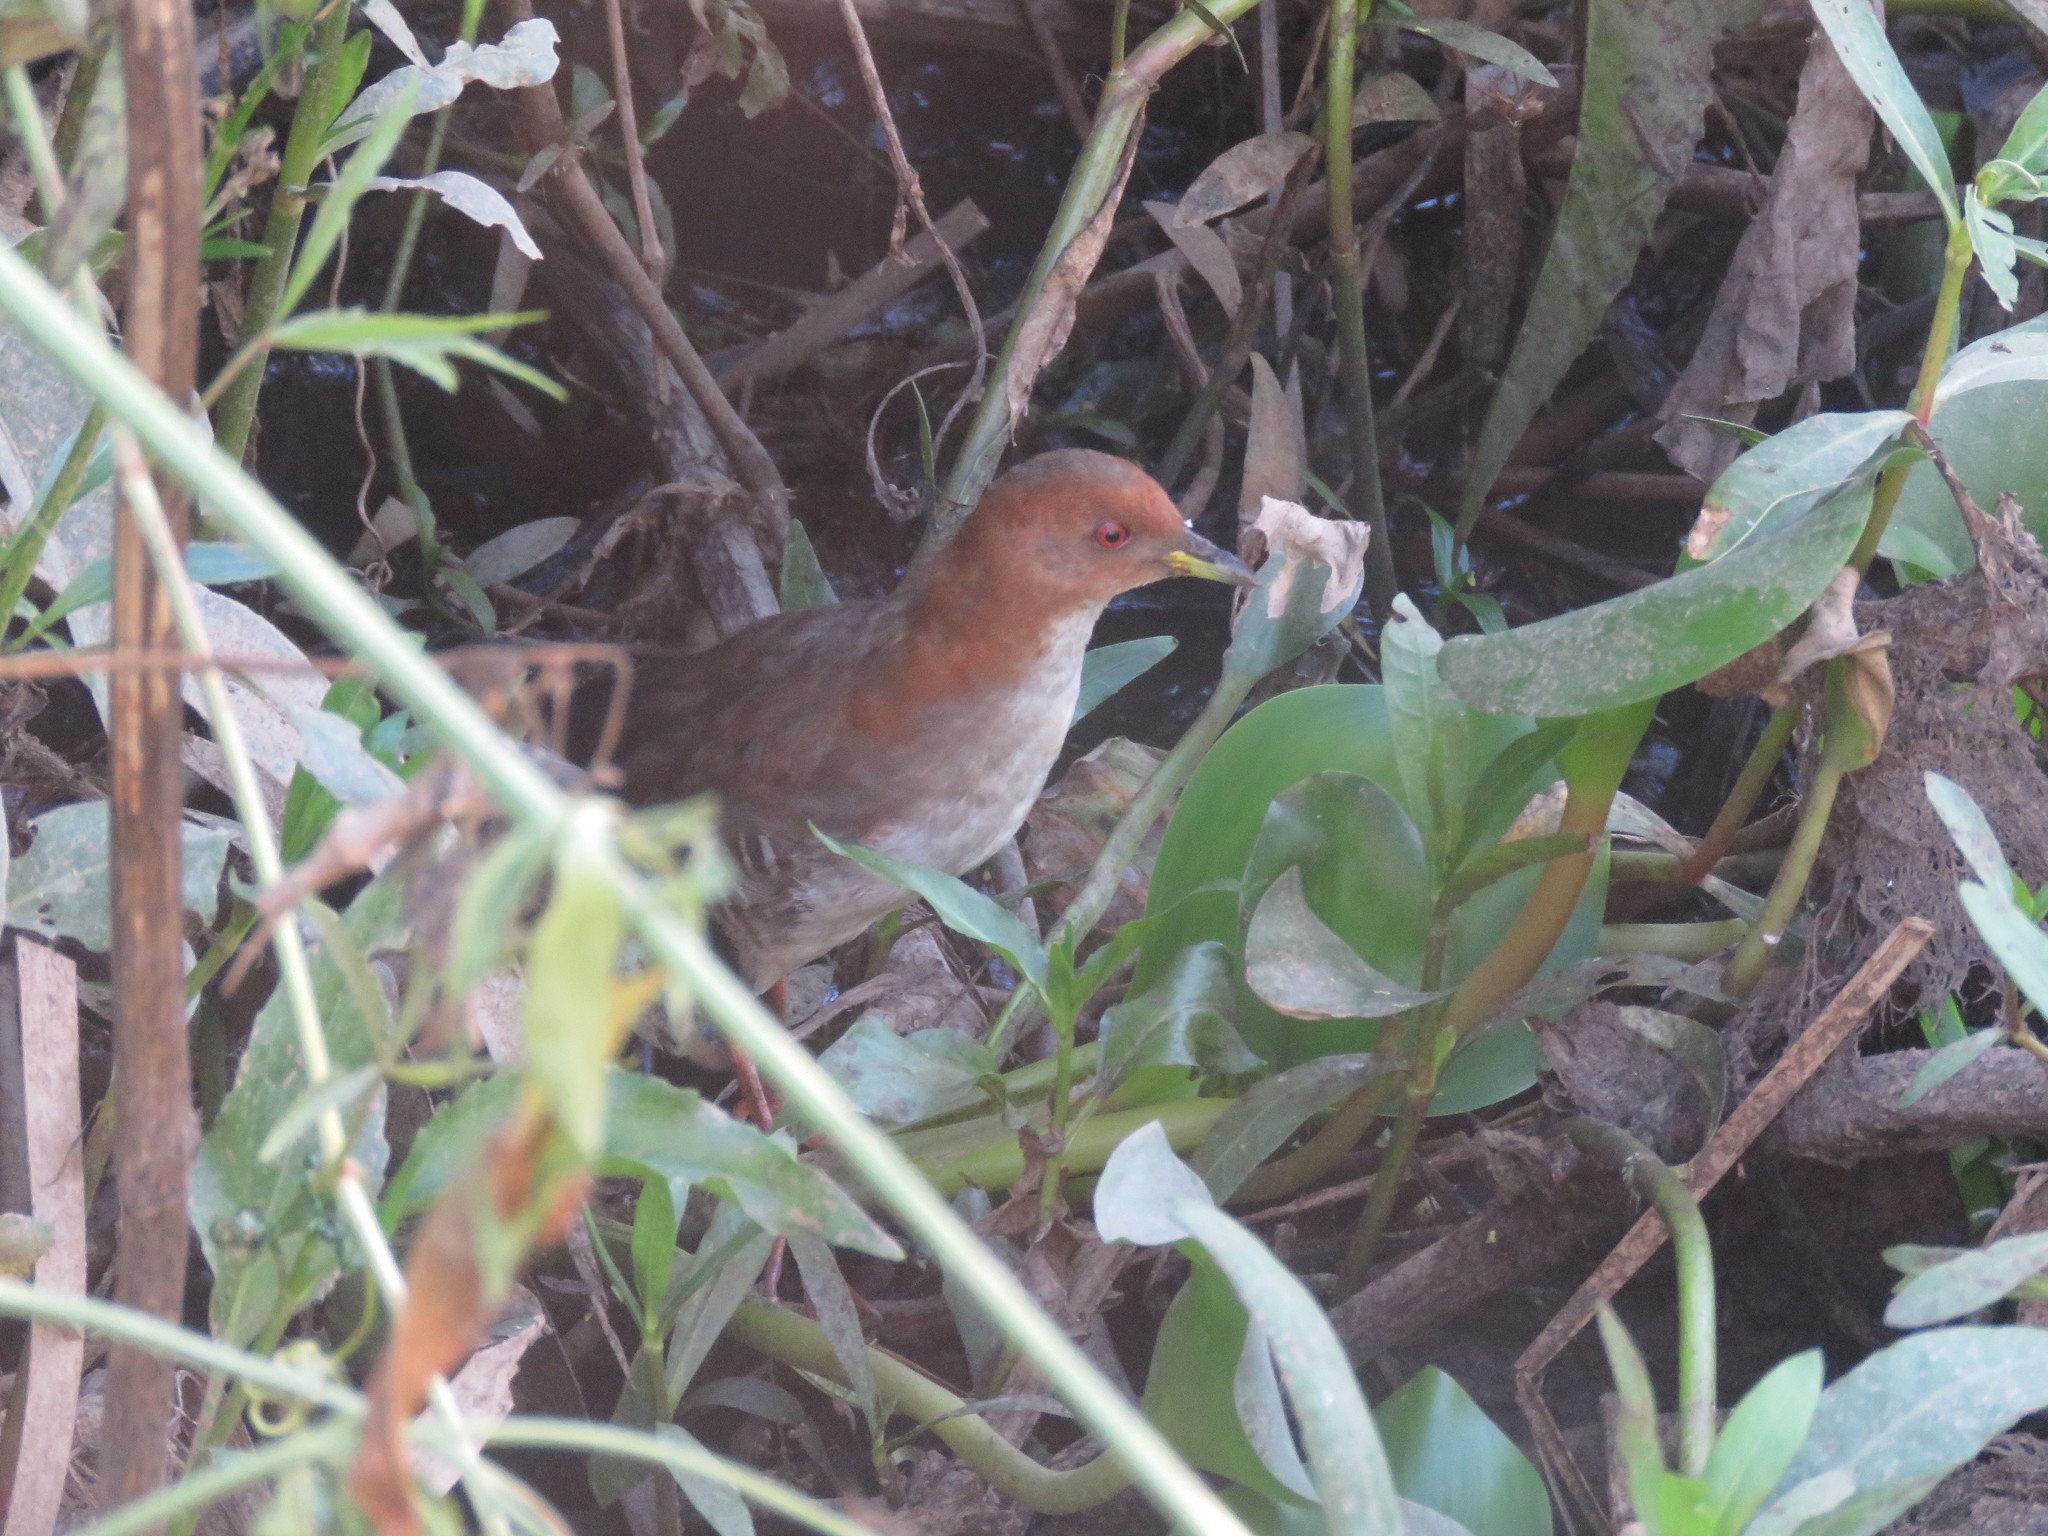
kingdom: Animalia
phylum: Chordata
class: Aves
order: Gruiformes
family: Rallidae
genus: Laterallus
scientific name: Laterallus leucopyrrhus
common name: Red-and-white crake
